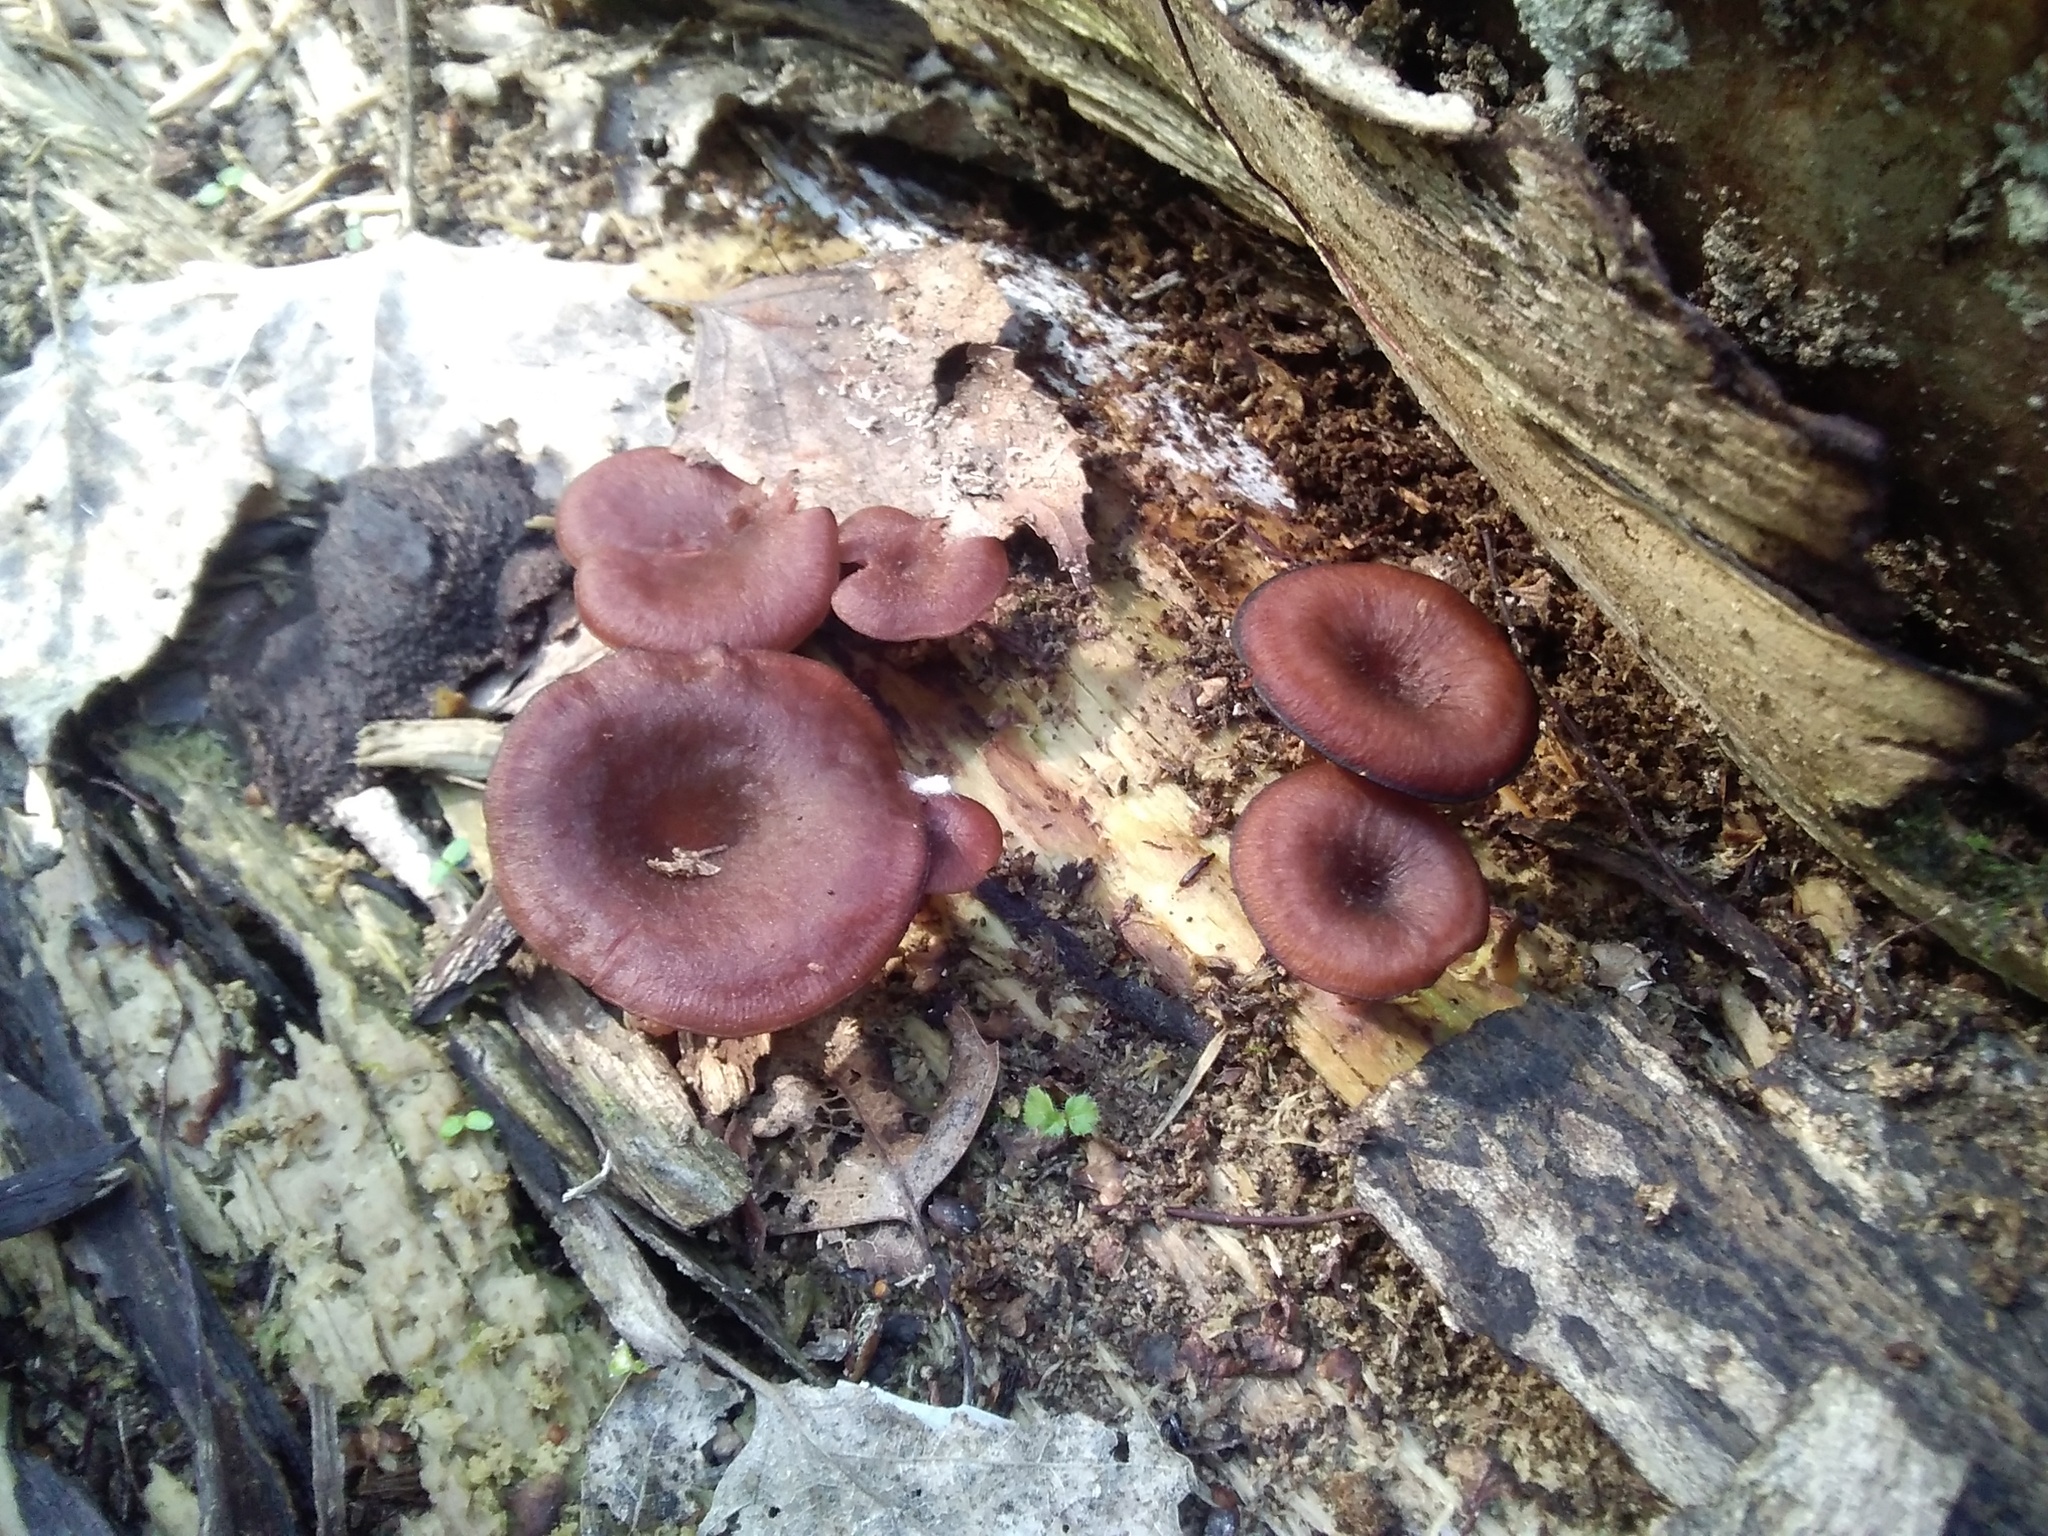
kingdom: Fungi
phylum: Basidiomycota
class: Agaricomycetes
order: Agaricales
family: Hygrophoraceae
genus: Arrhenia
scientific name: Arrhenia discorosea
